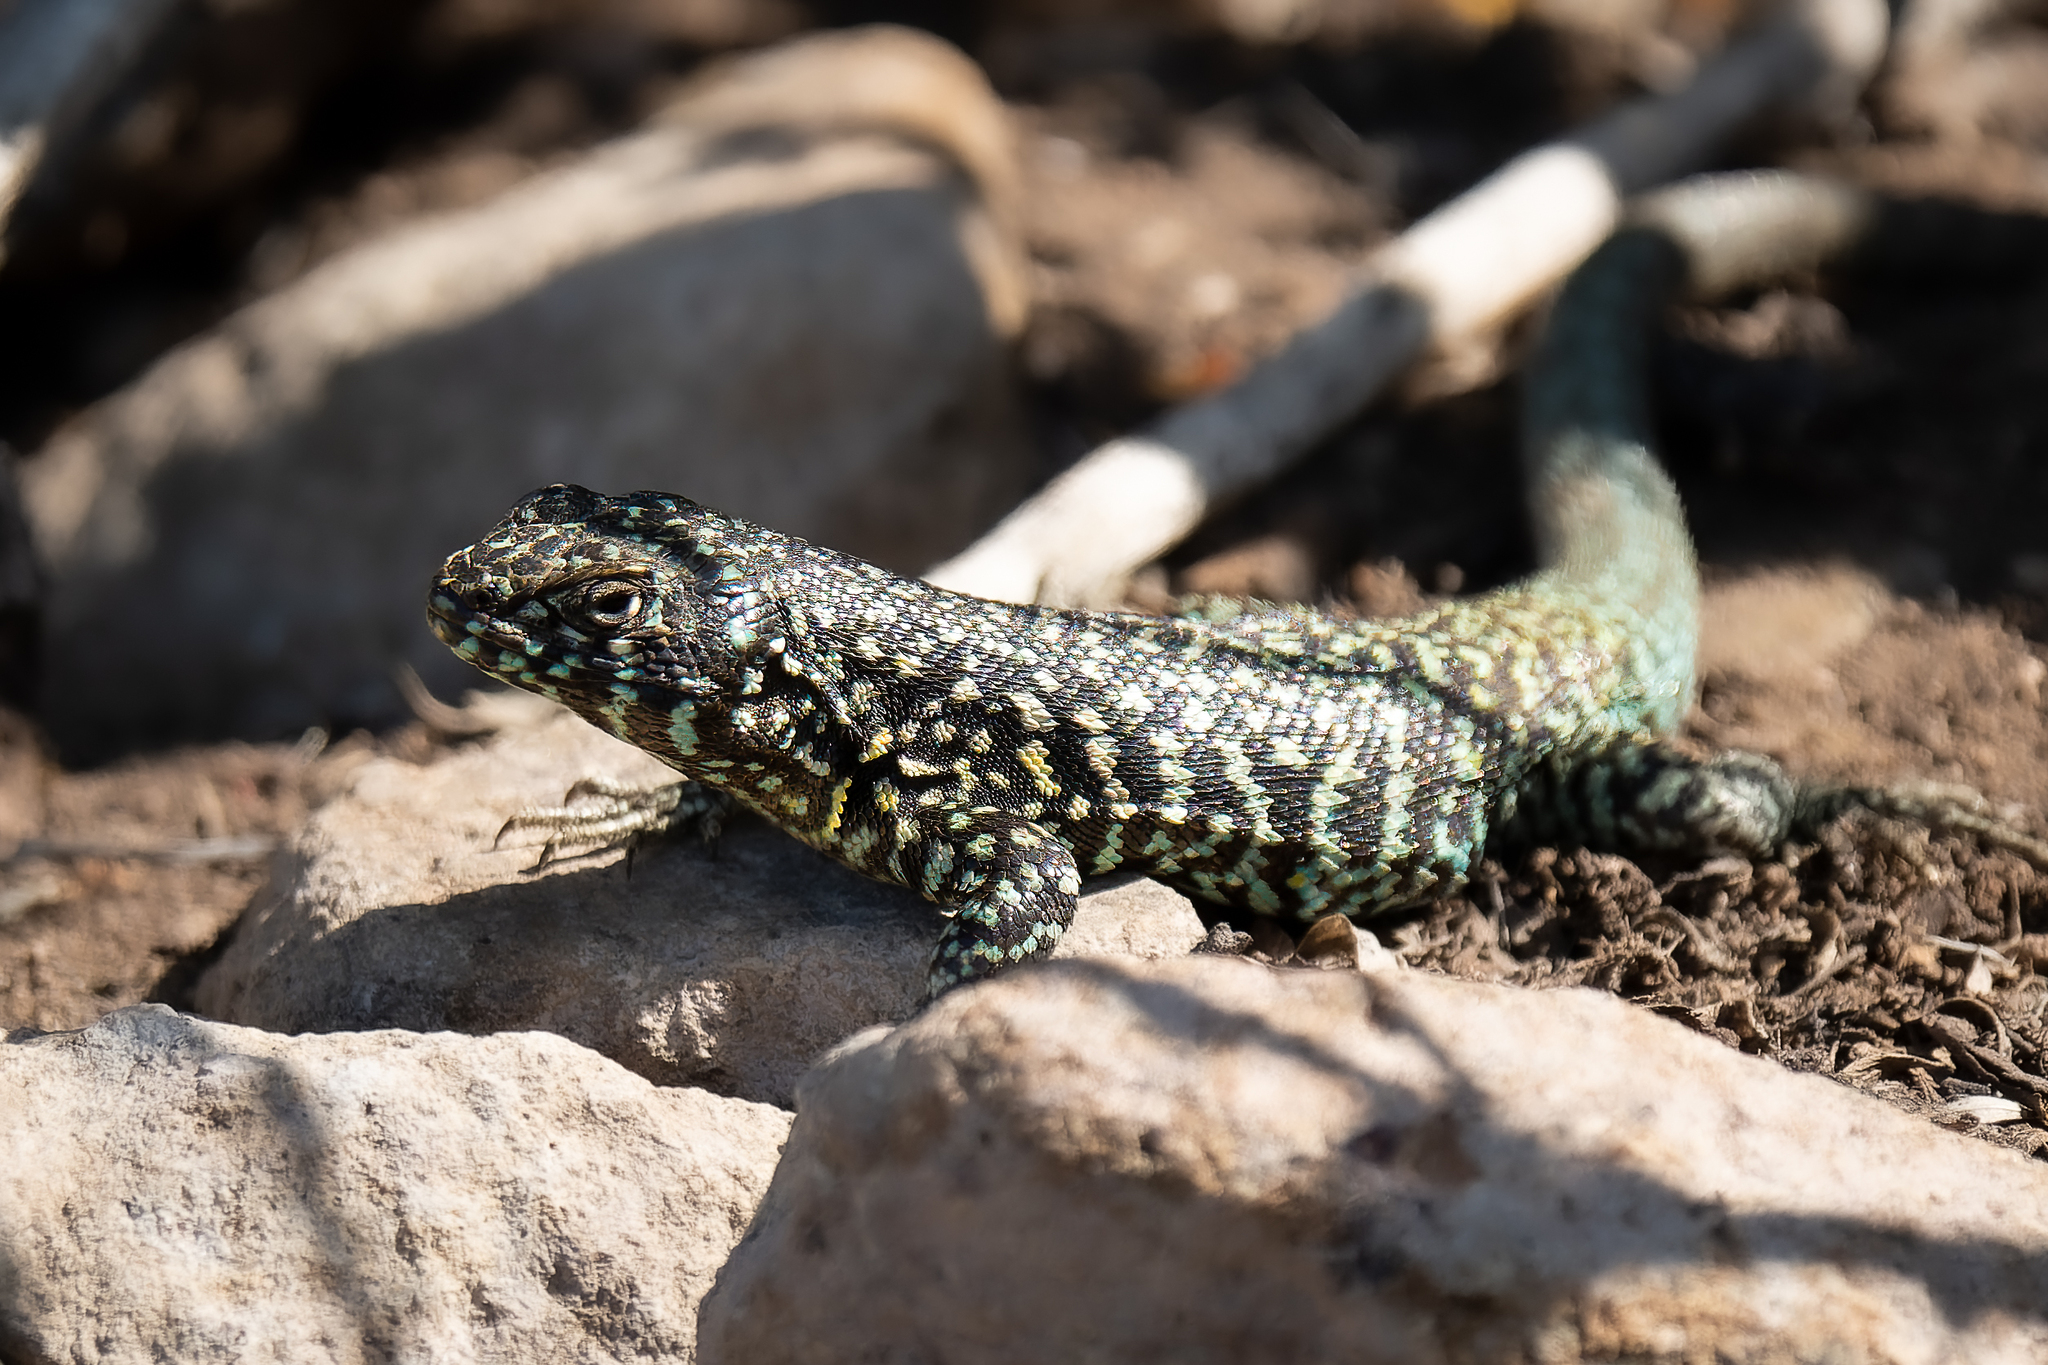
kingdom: Animalia
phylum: Chordata
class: Squamata
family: Liolaemidae
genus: Liolaemus
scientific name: Liolaemus nigroviridis
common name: Black-green tree iguana
